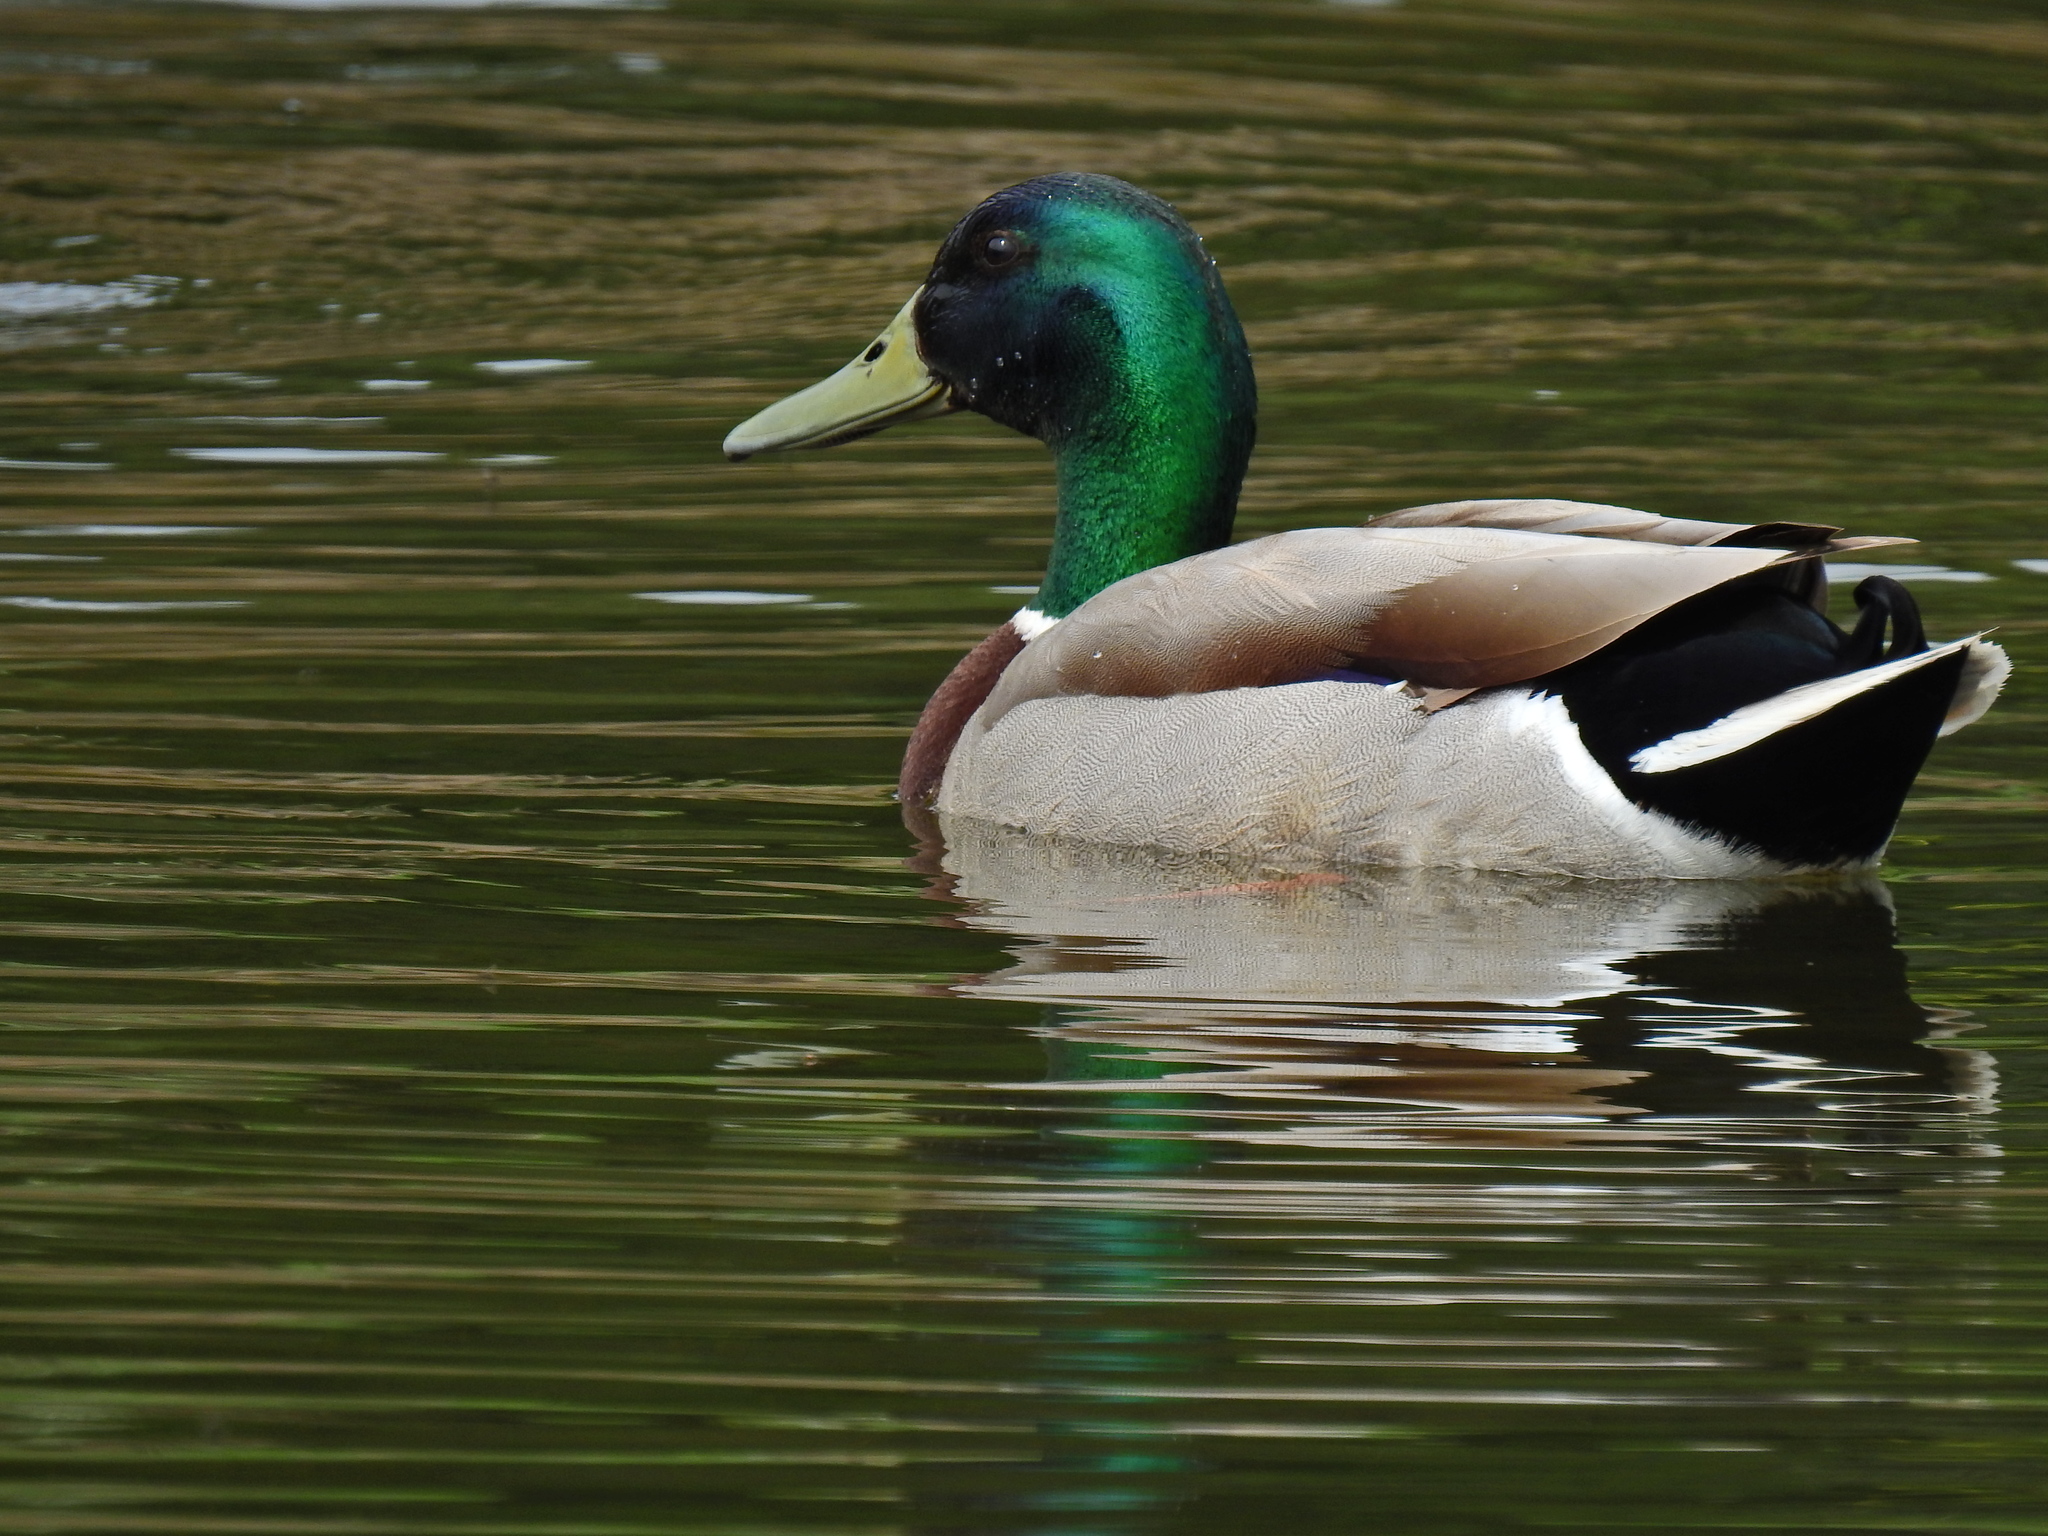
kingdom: Animalia
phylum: Chordata
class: Aves
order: Anseriformes
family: Anatidae
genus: Anas
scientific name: Anas platyrhynchos
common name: Mallard
